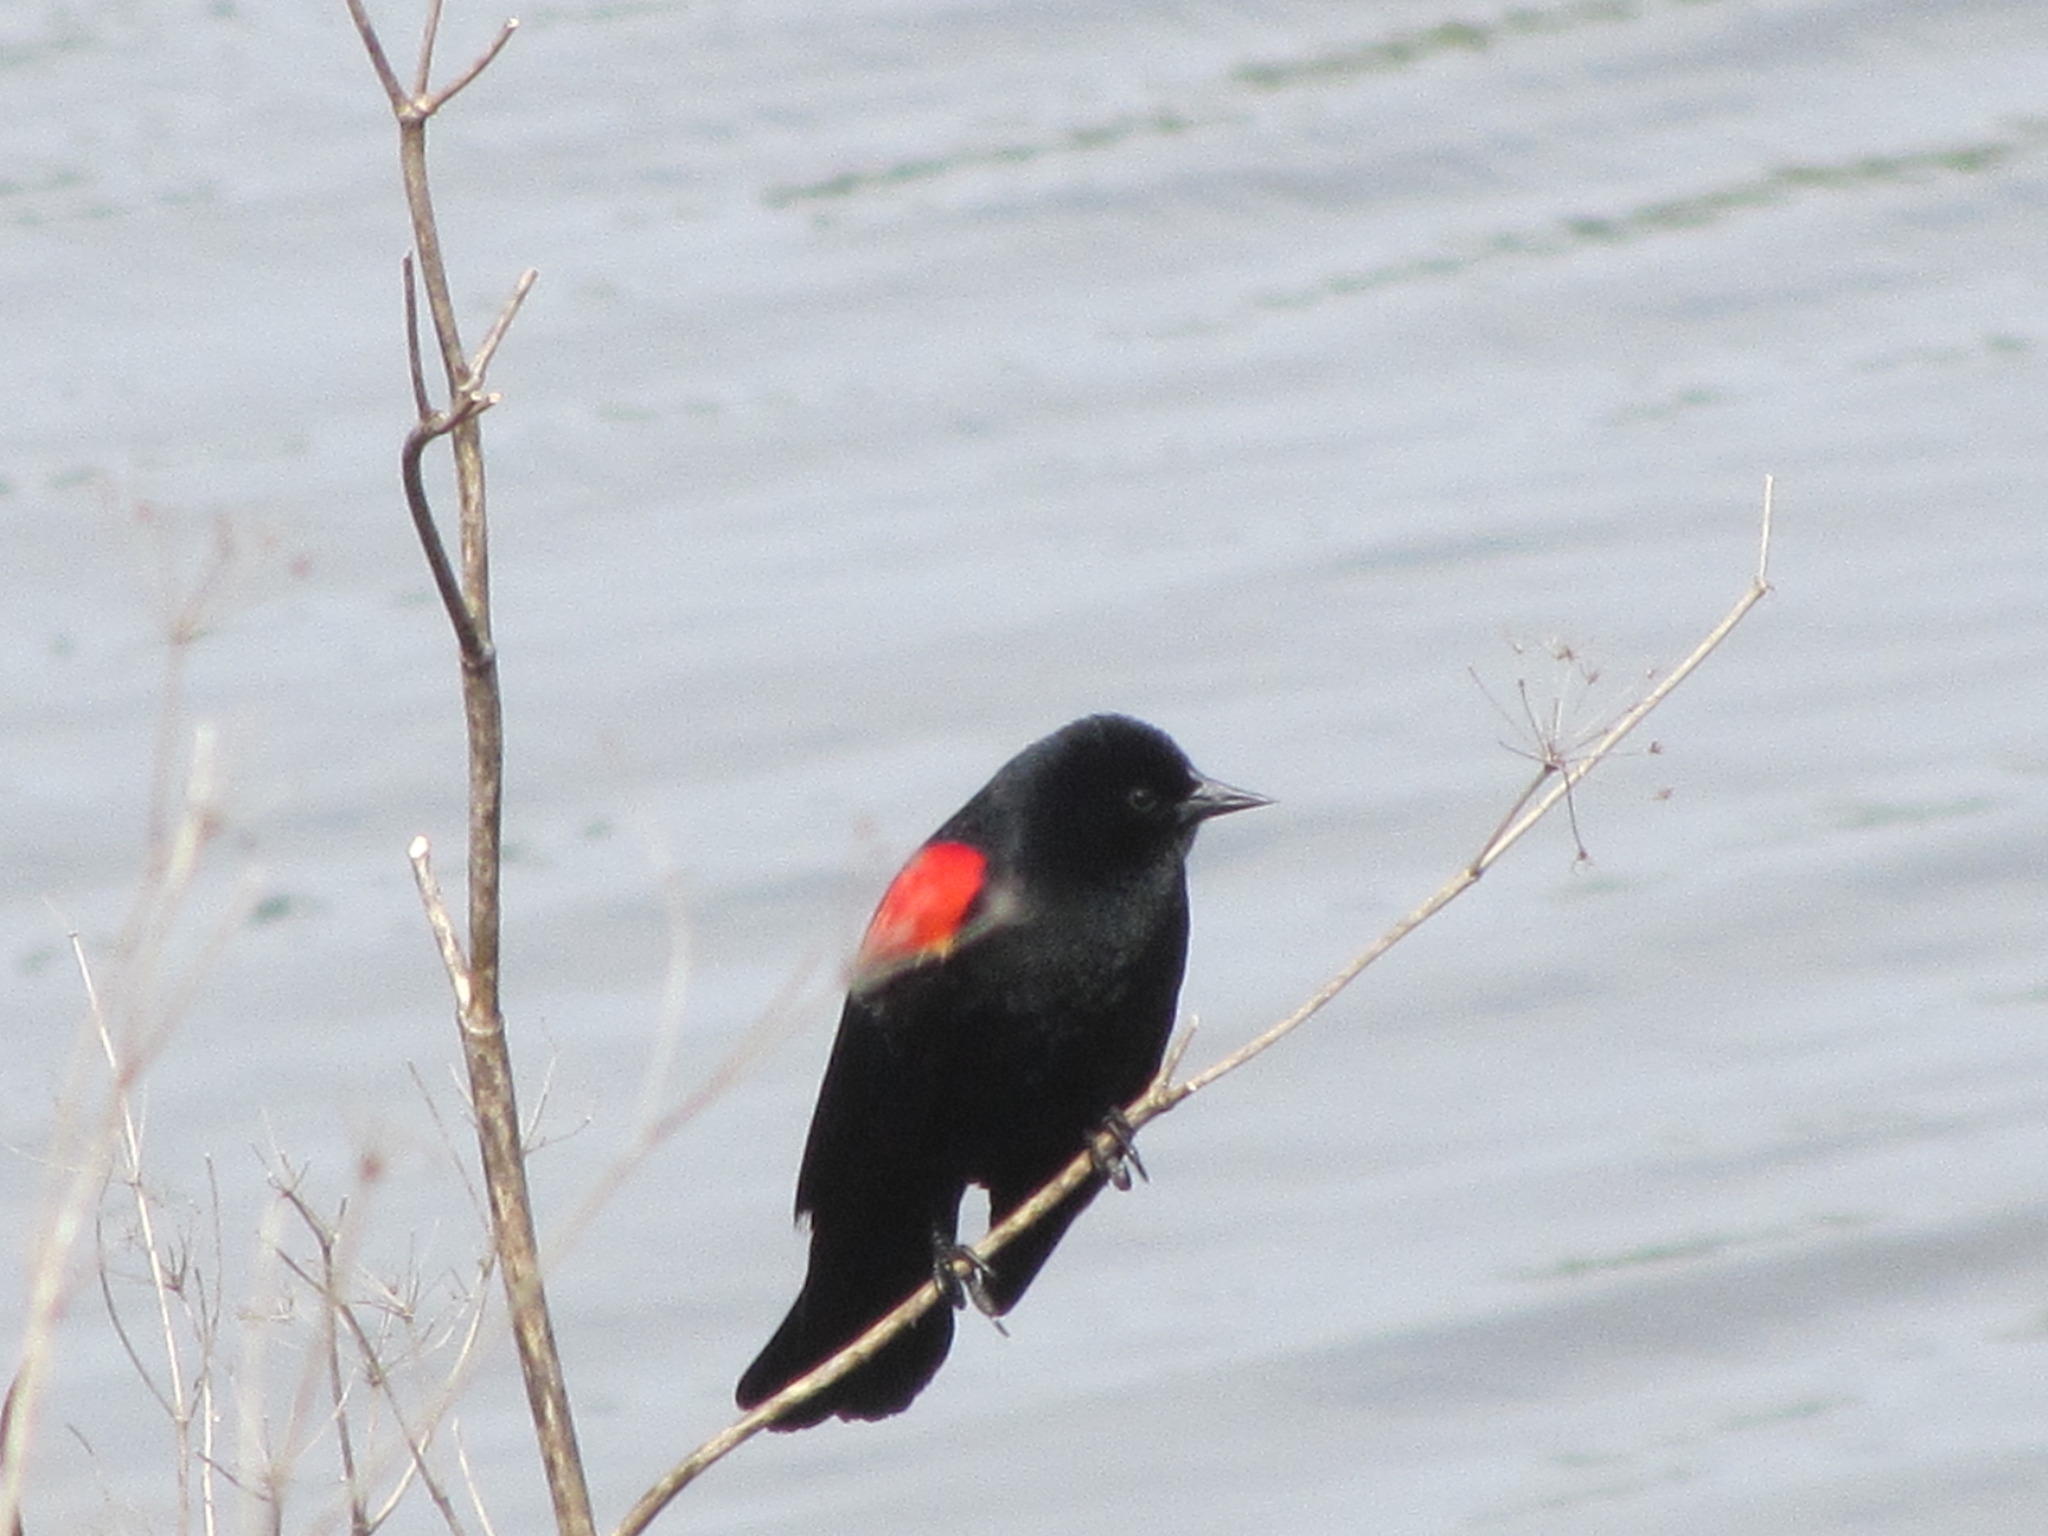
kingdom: Animalia
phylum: Chordata
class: Aves
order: Passeriformes
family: Icteridae
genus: Agelaius
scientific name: Agelaius phoeniceus
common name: Red-winged blackbird
